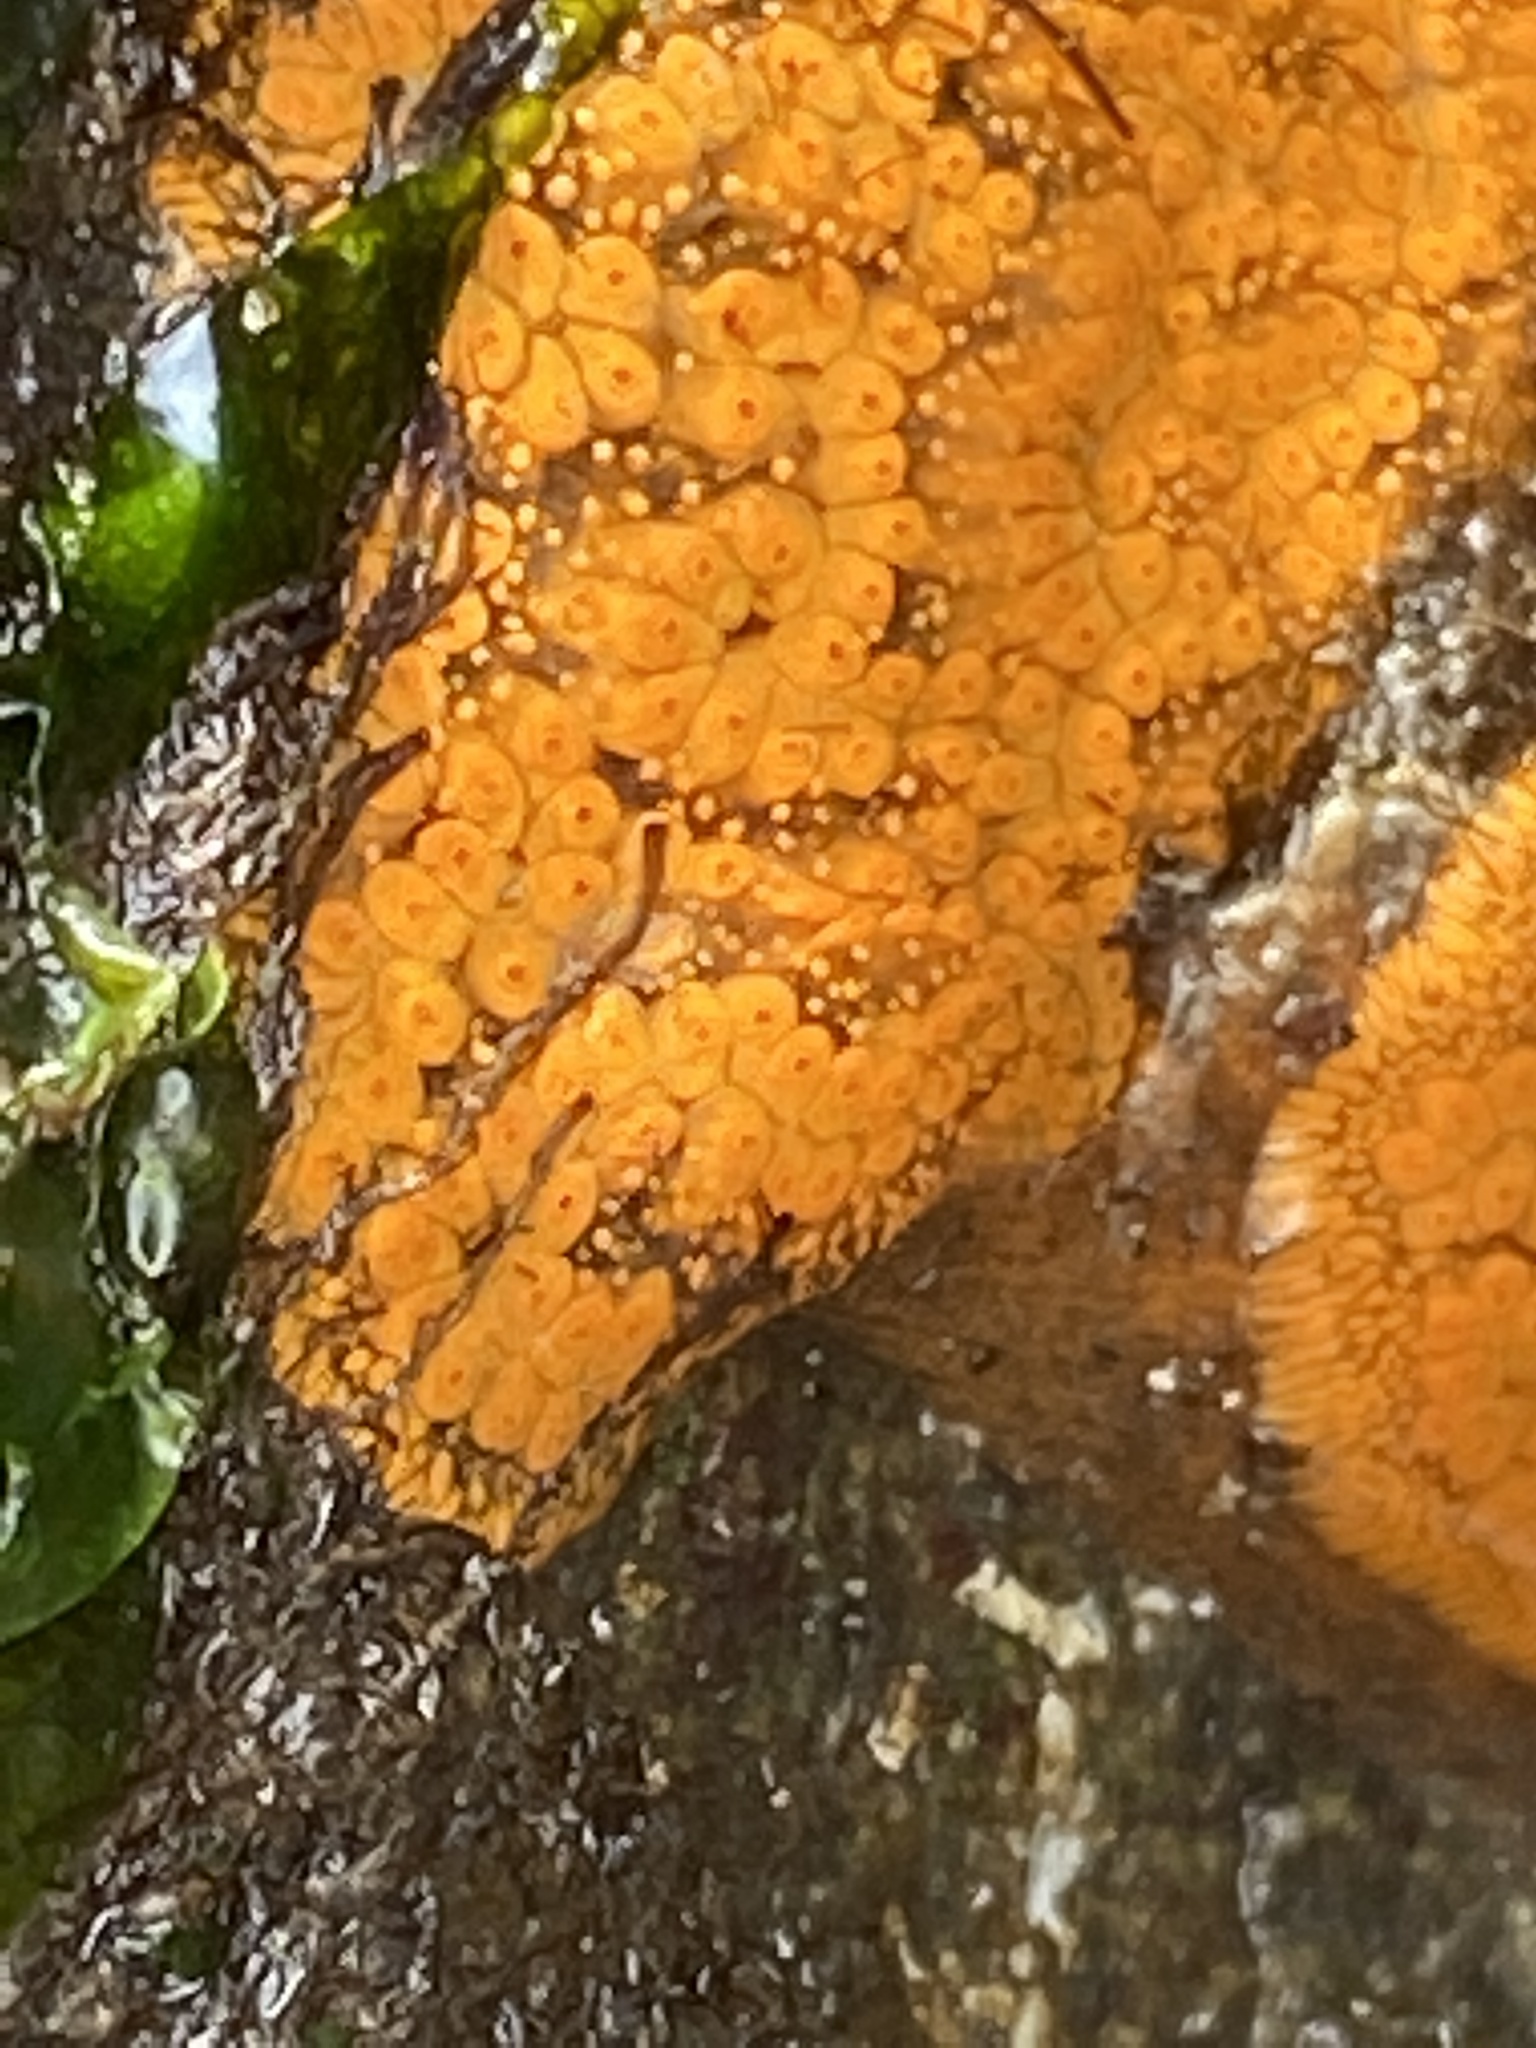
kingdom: Animalia
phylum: Chordata
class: Ascidiacea
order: Stolidobranchia
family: Styelidae
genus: Botrylloides
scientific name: Botrylloides violaceus
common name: Colonial sea squirt
